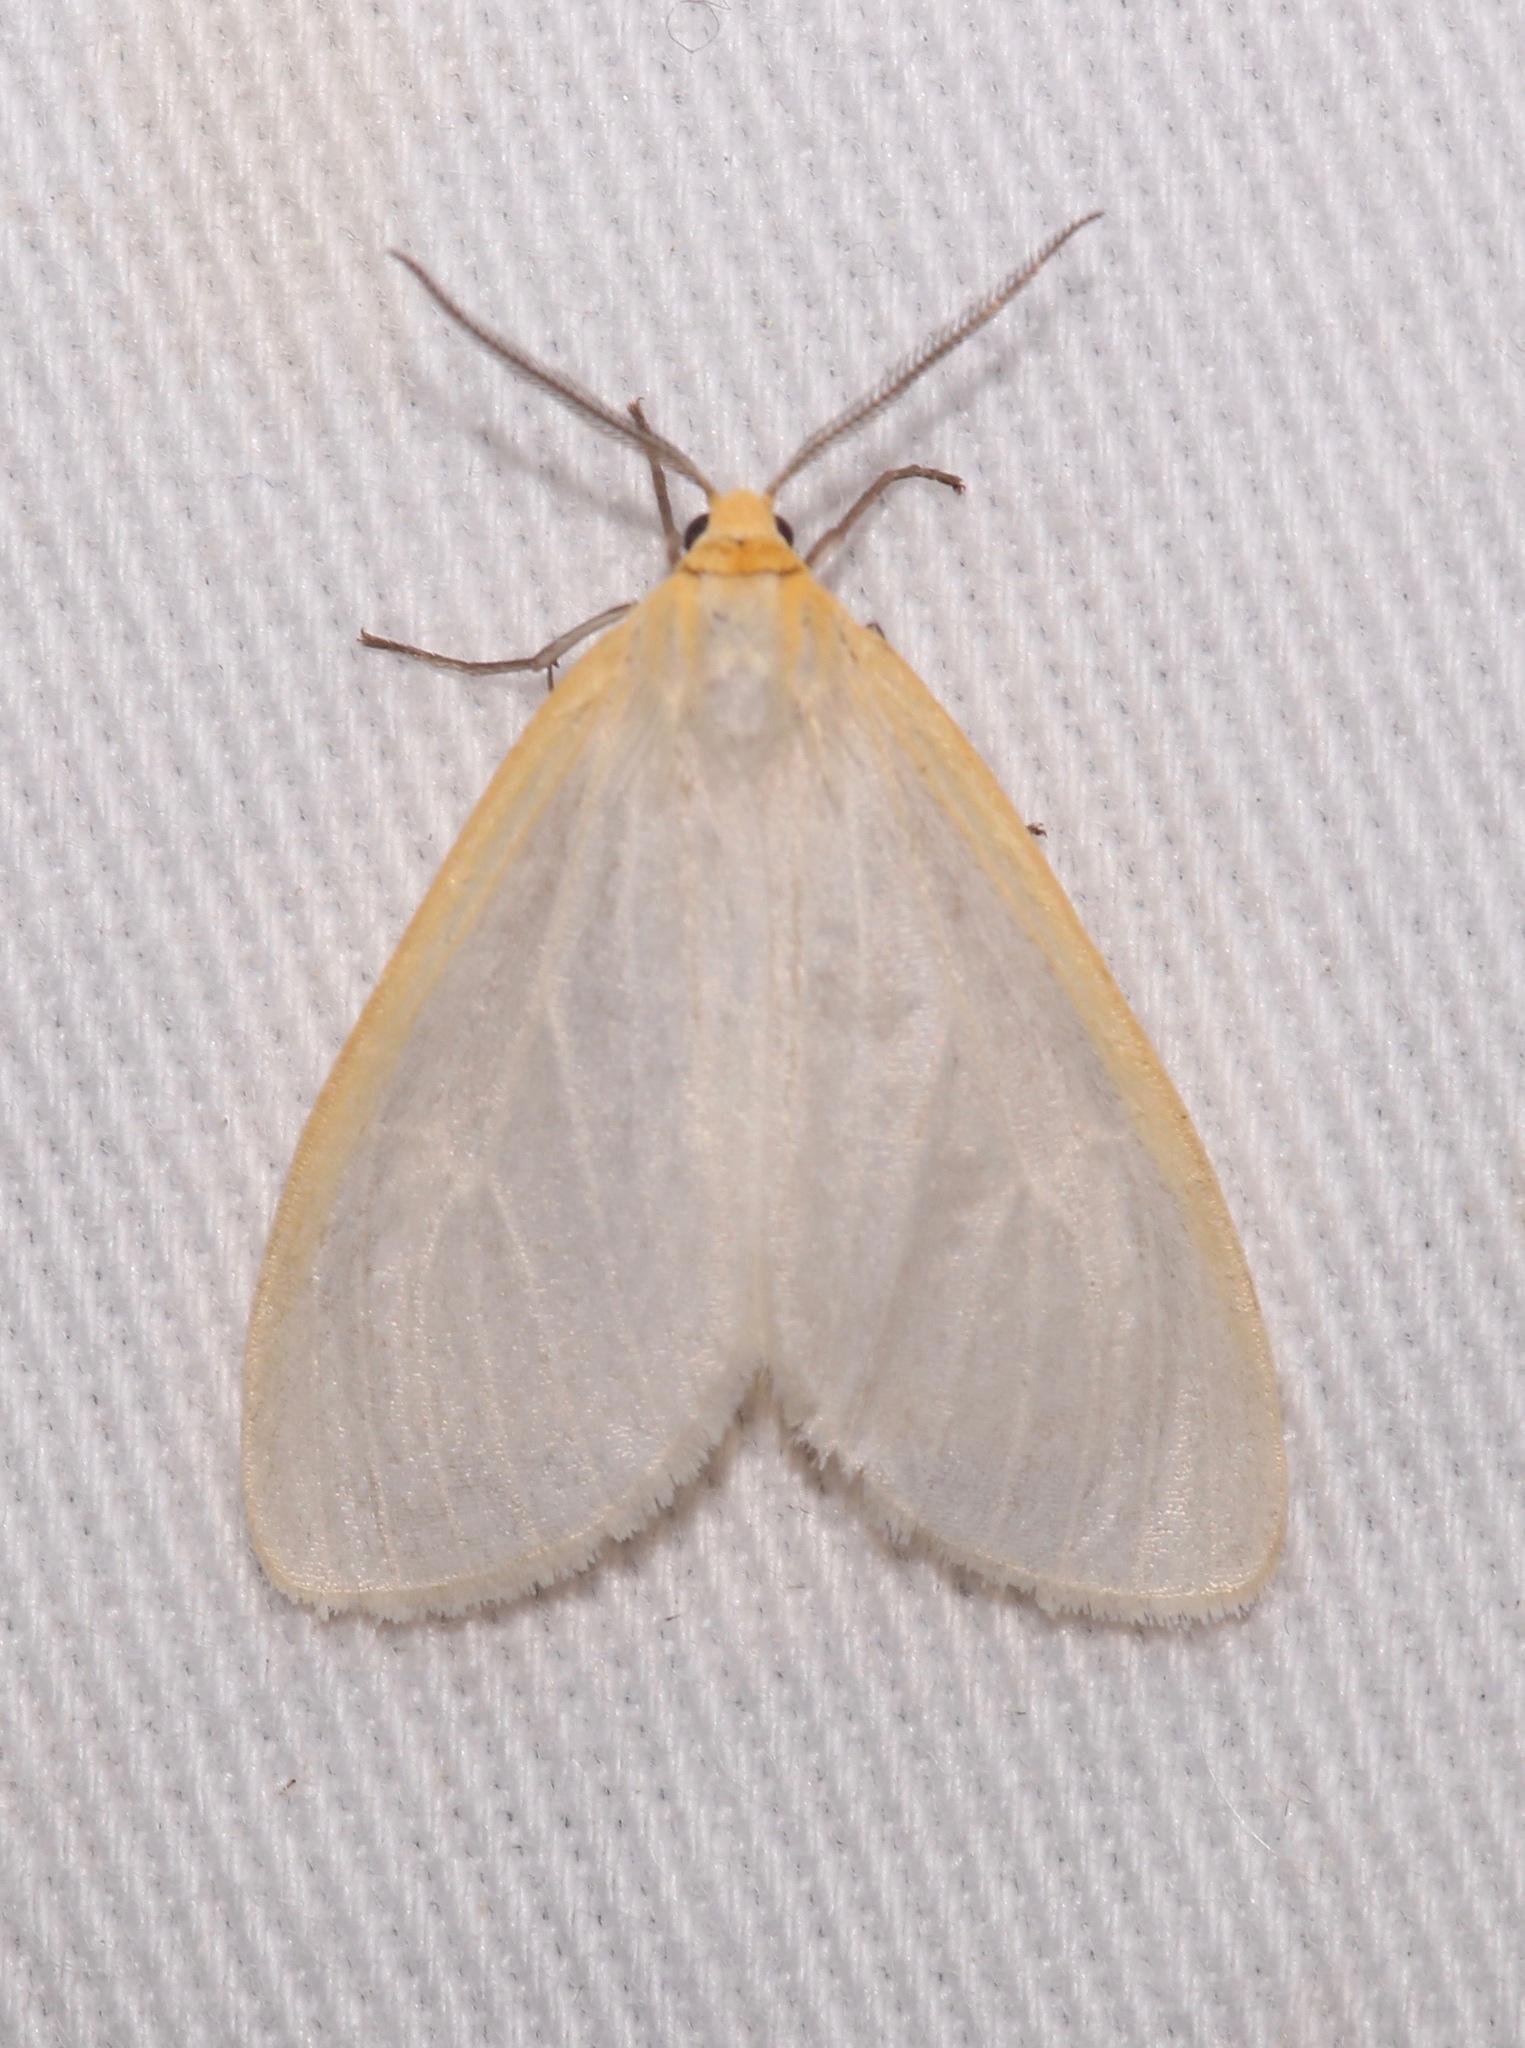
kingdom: Animalia
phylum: Arthropoda
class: Insecta
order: Lepidoptera
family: Erebidae
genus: Cycnia
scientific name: Cycnia tenera
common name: Delicate cycnia moth
